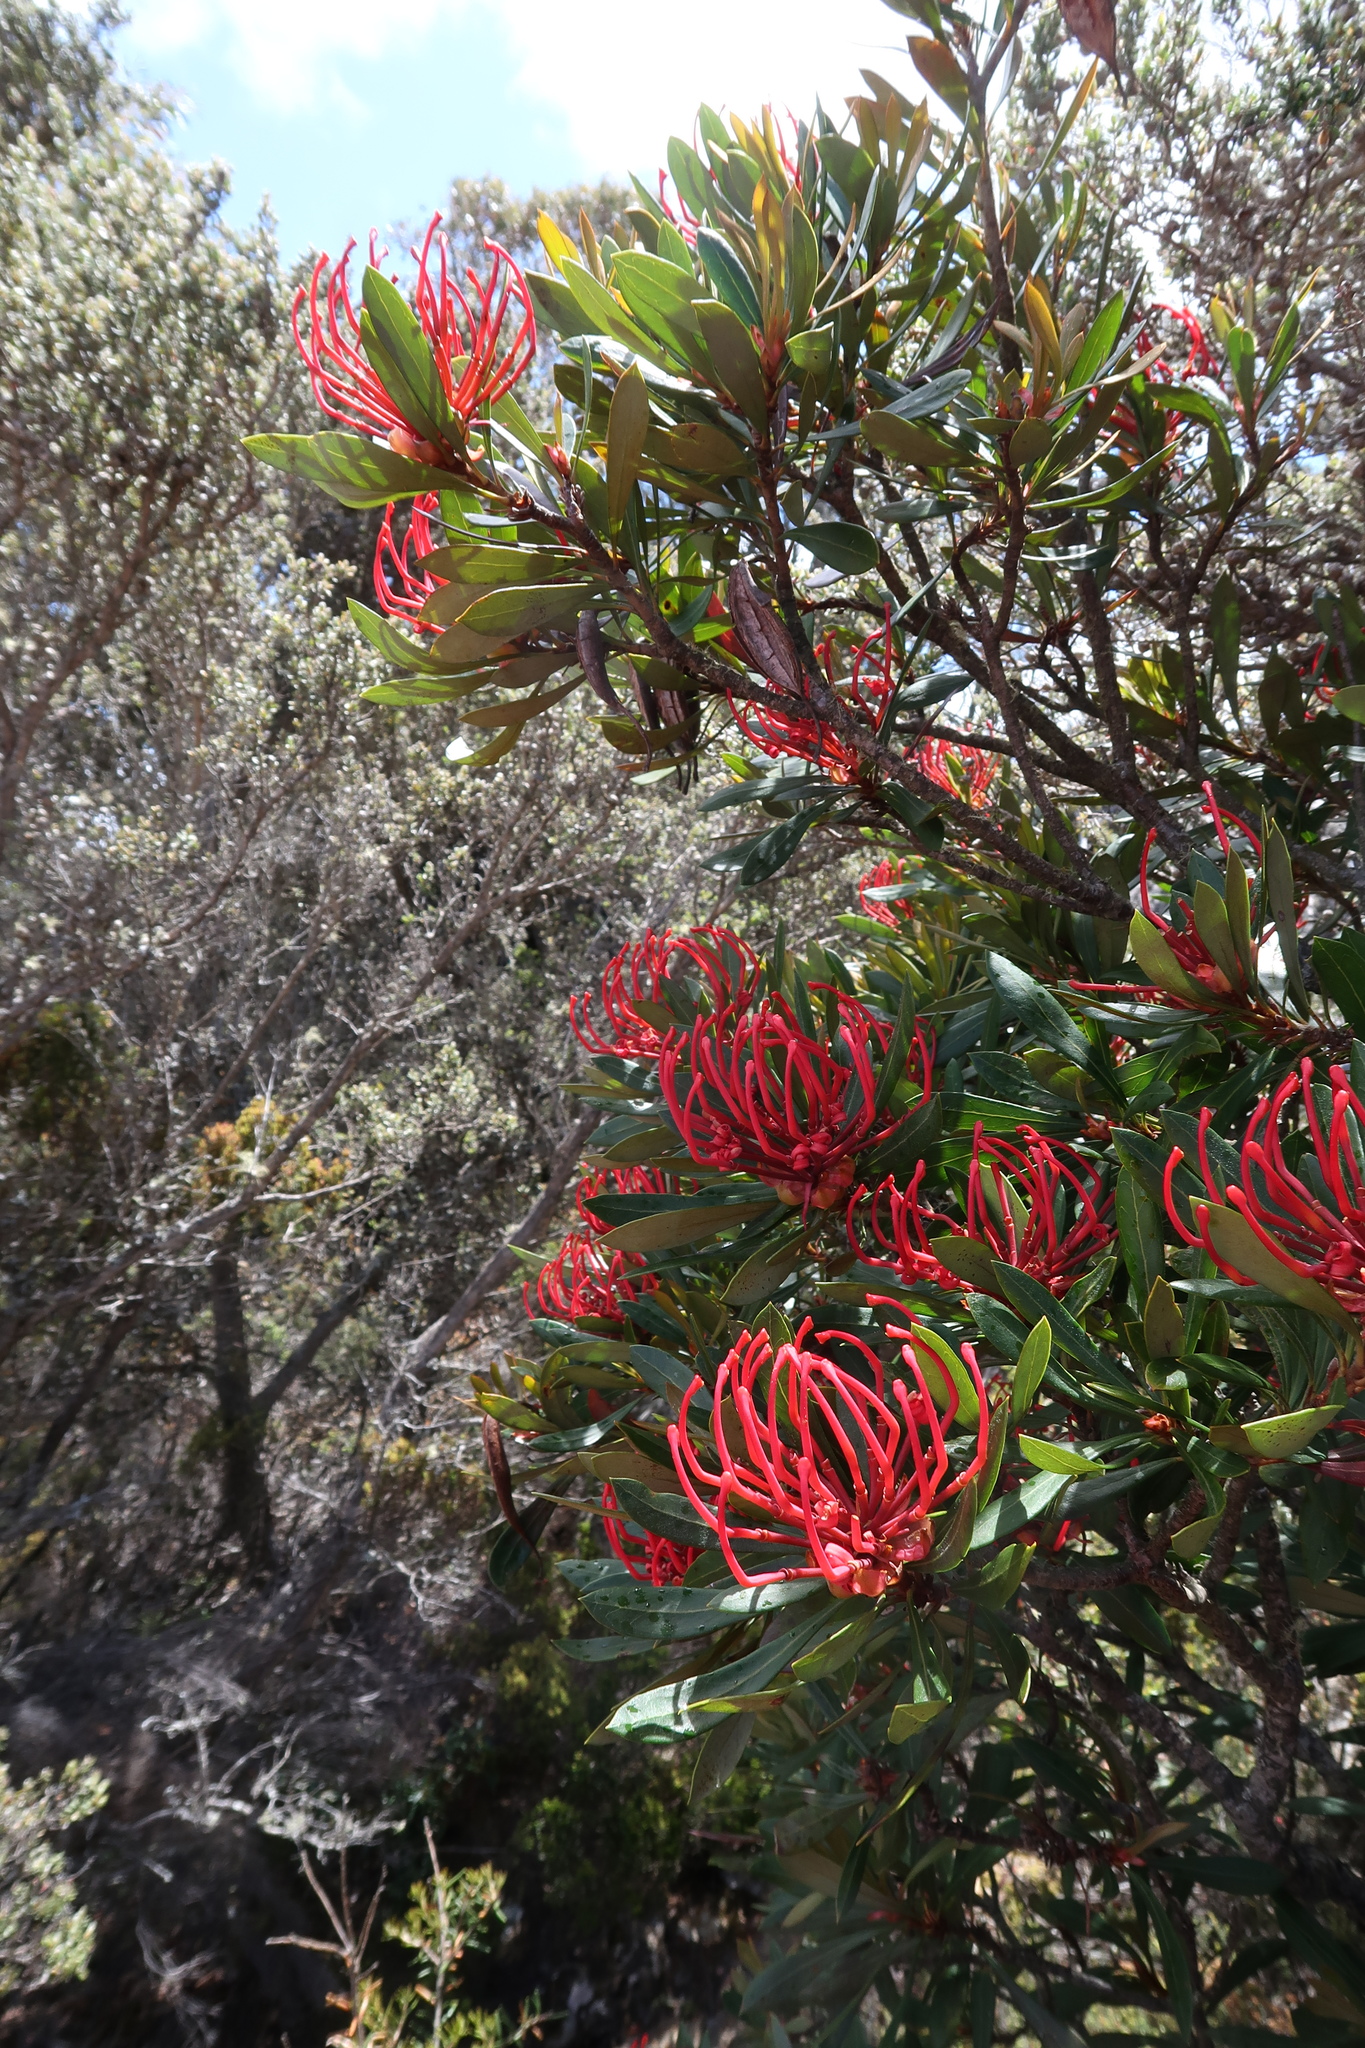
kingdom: Plantae
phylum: Tracheophyta
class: Magnoliopsida
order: Proteales
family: Proteaceae
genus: Telopea
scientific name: Telopea truncata
